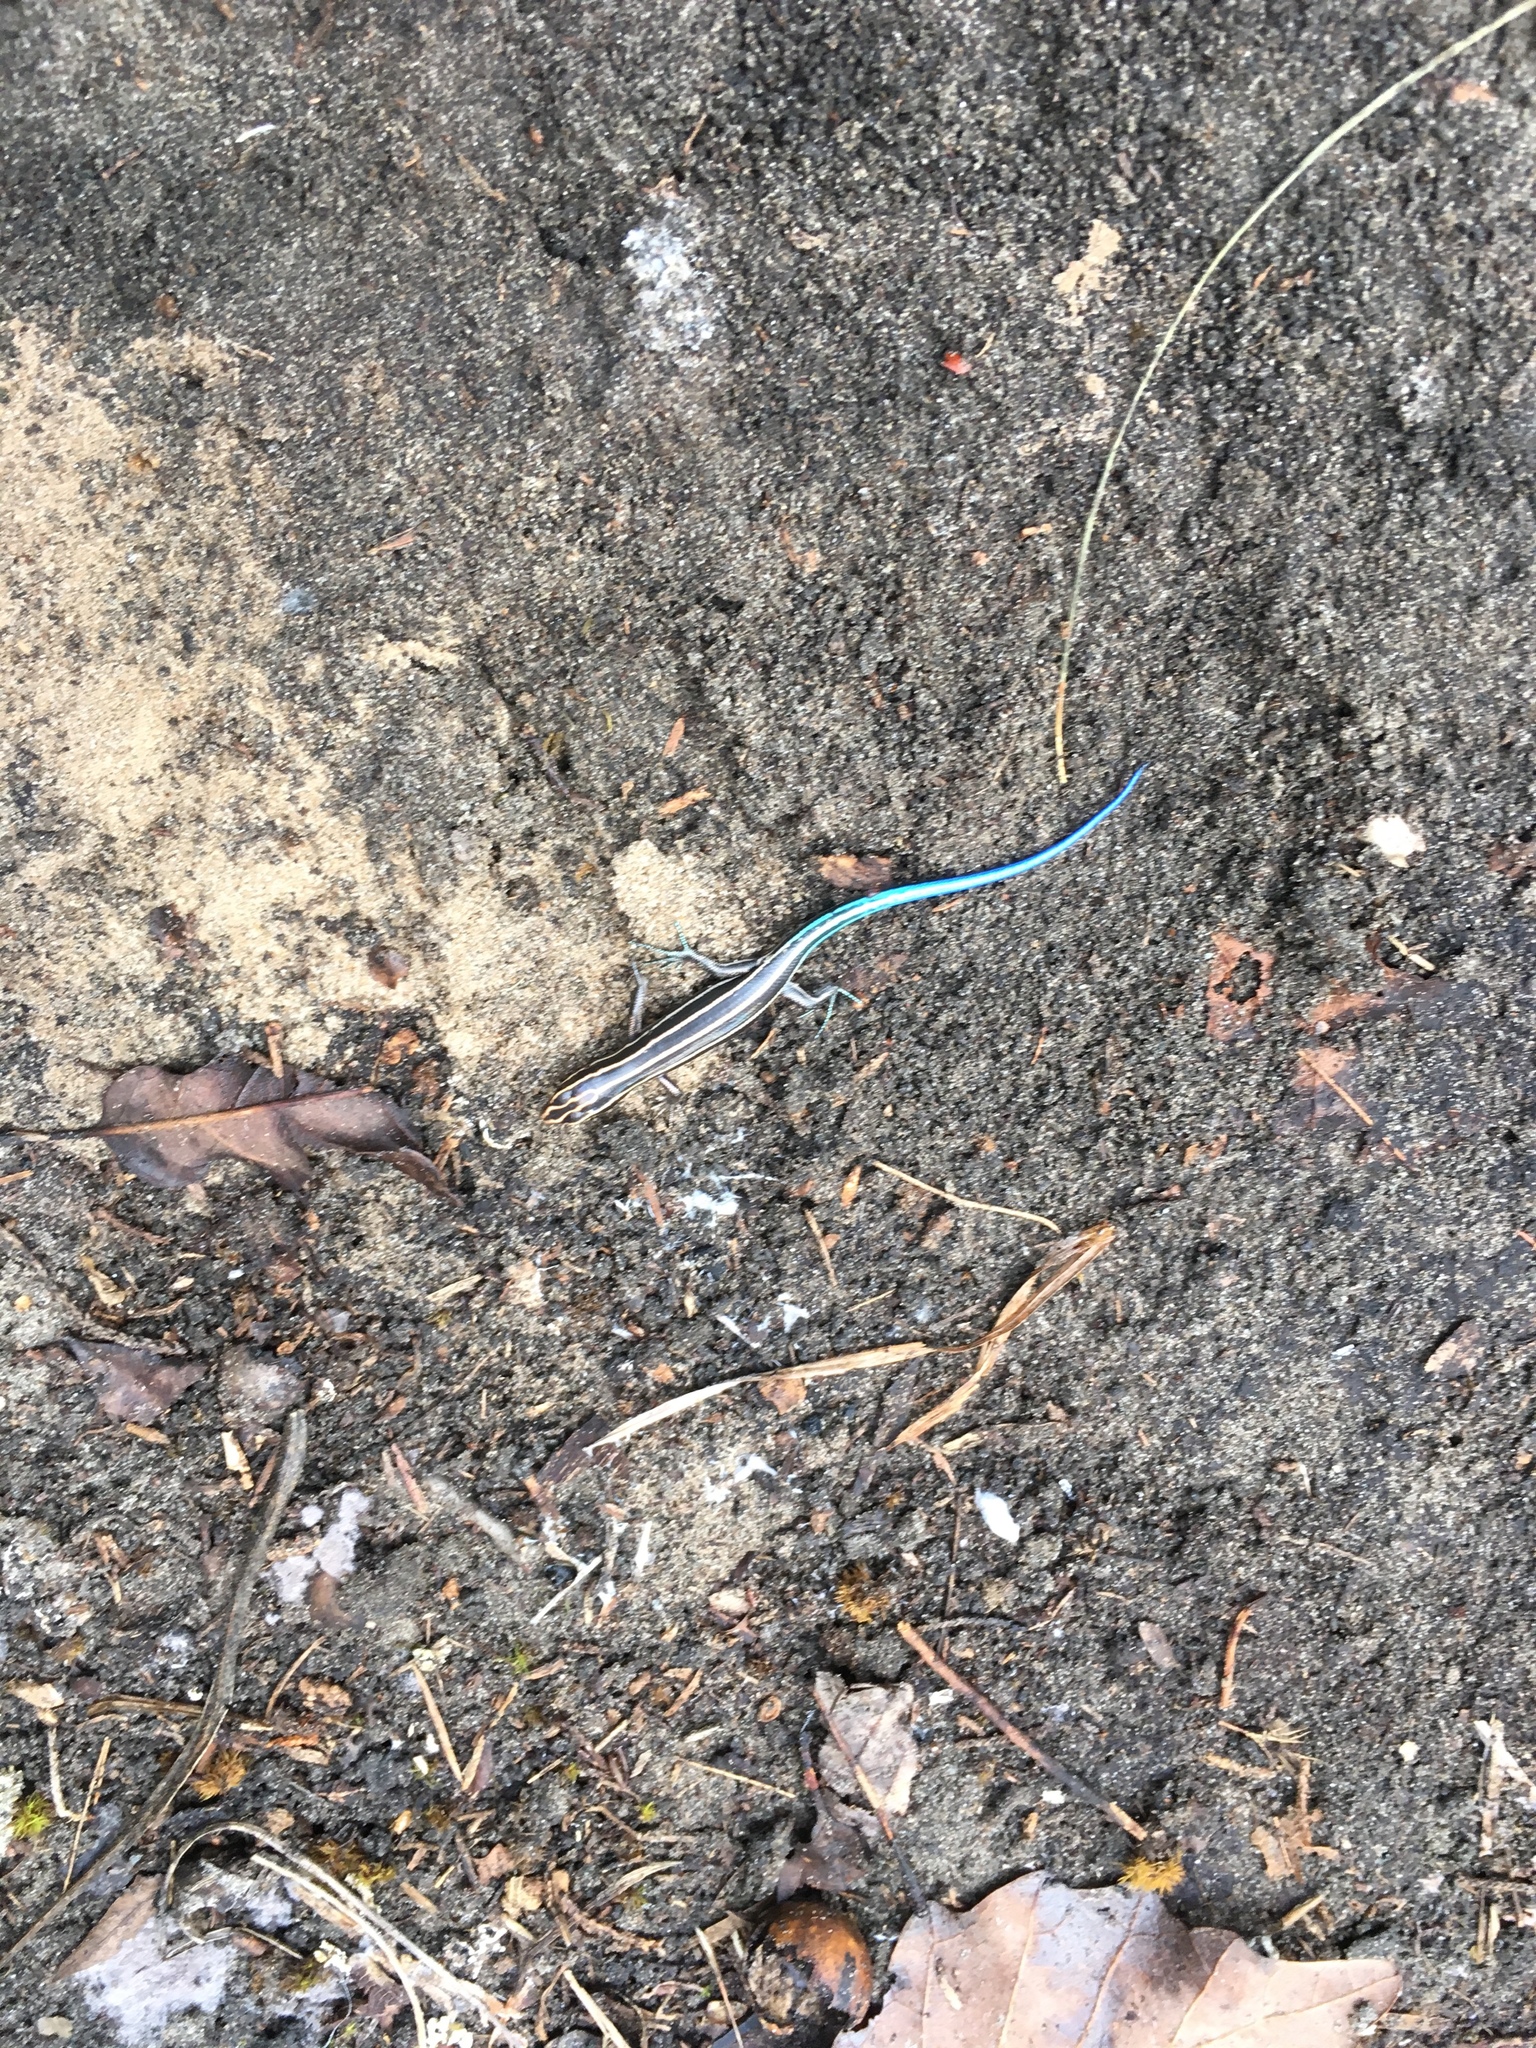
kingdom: Animalia
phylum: Chordata
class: Squamata
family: Scincidae
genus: Plestiodon
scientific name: Plestiodon fasciatus
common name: Five-lined skink
